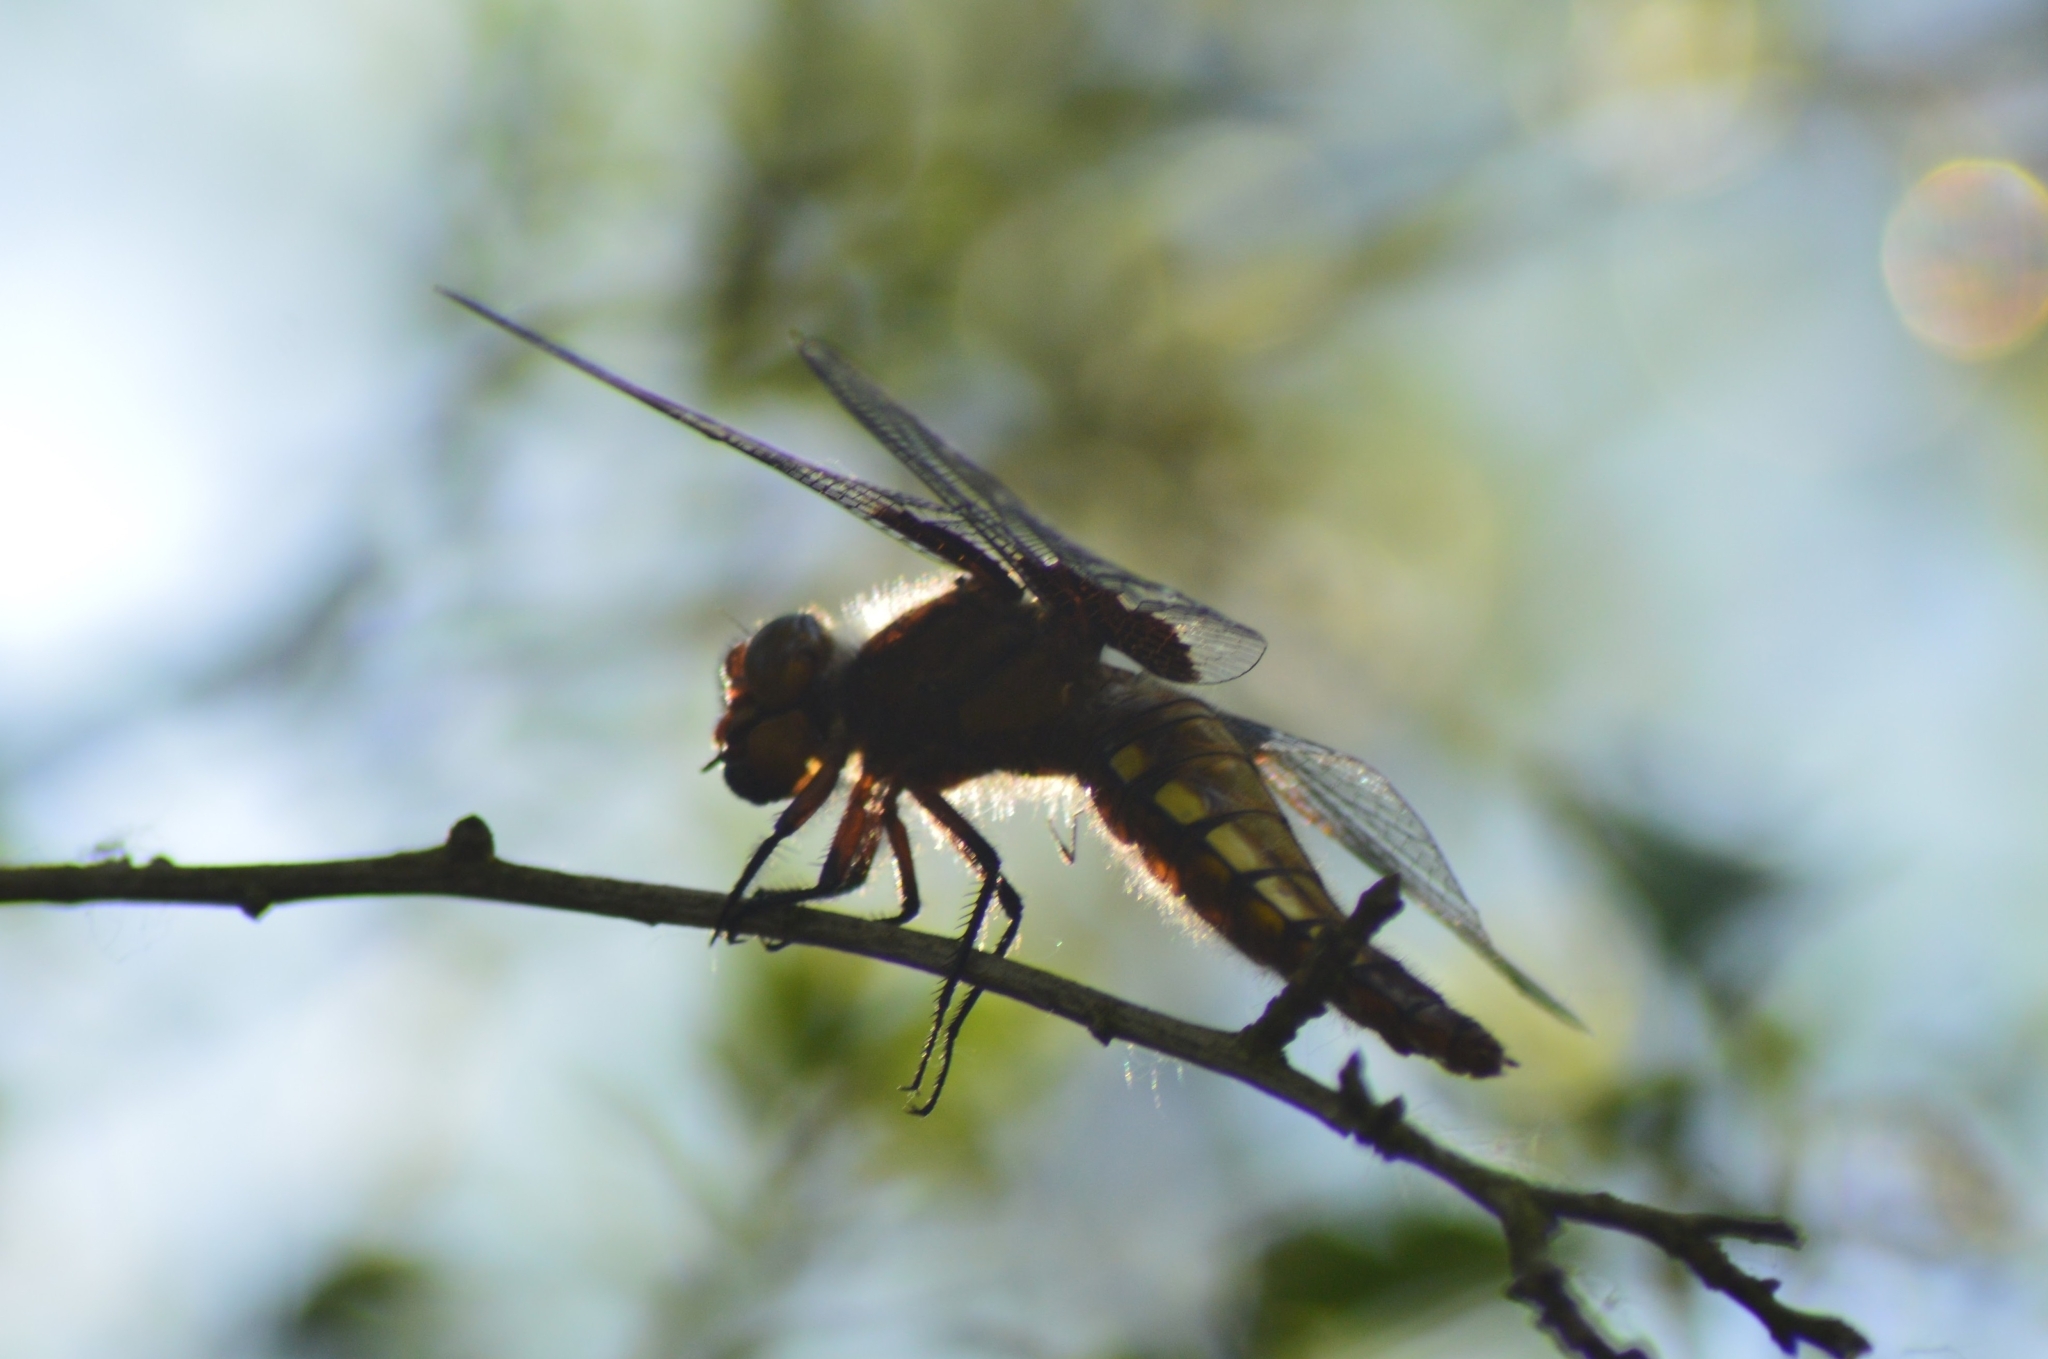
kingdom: Animalia
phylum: Arthropoda
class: Insecta
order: Odonata
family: Libellulidae
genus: Libellula
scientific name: Libellula depressa
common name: Broad-bodied chaser
